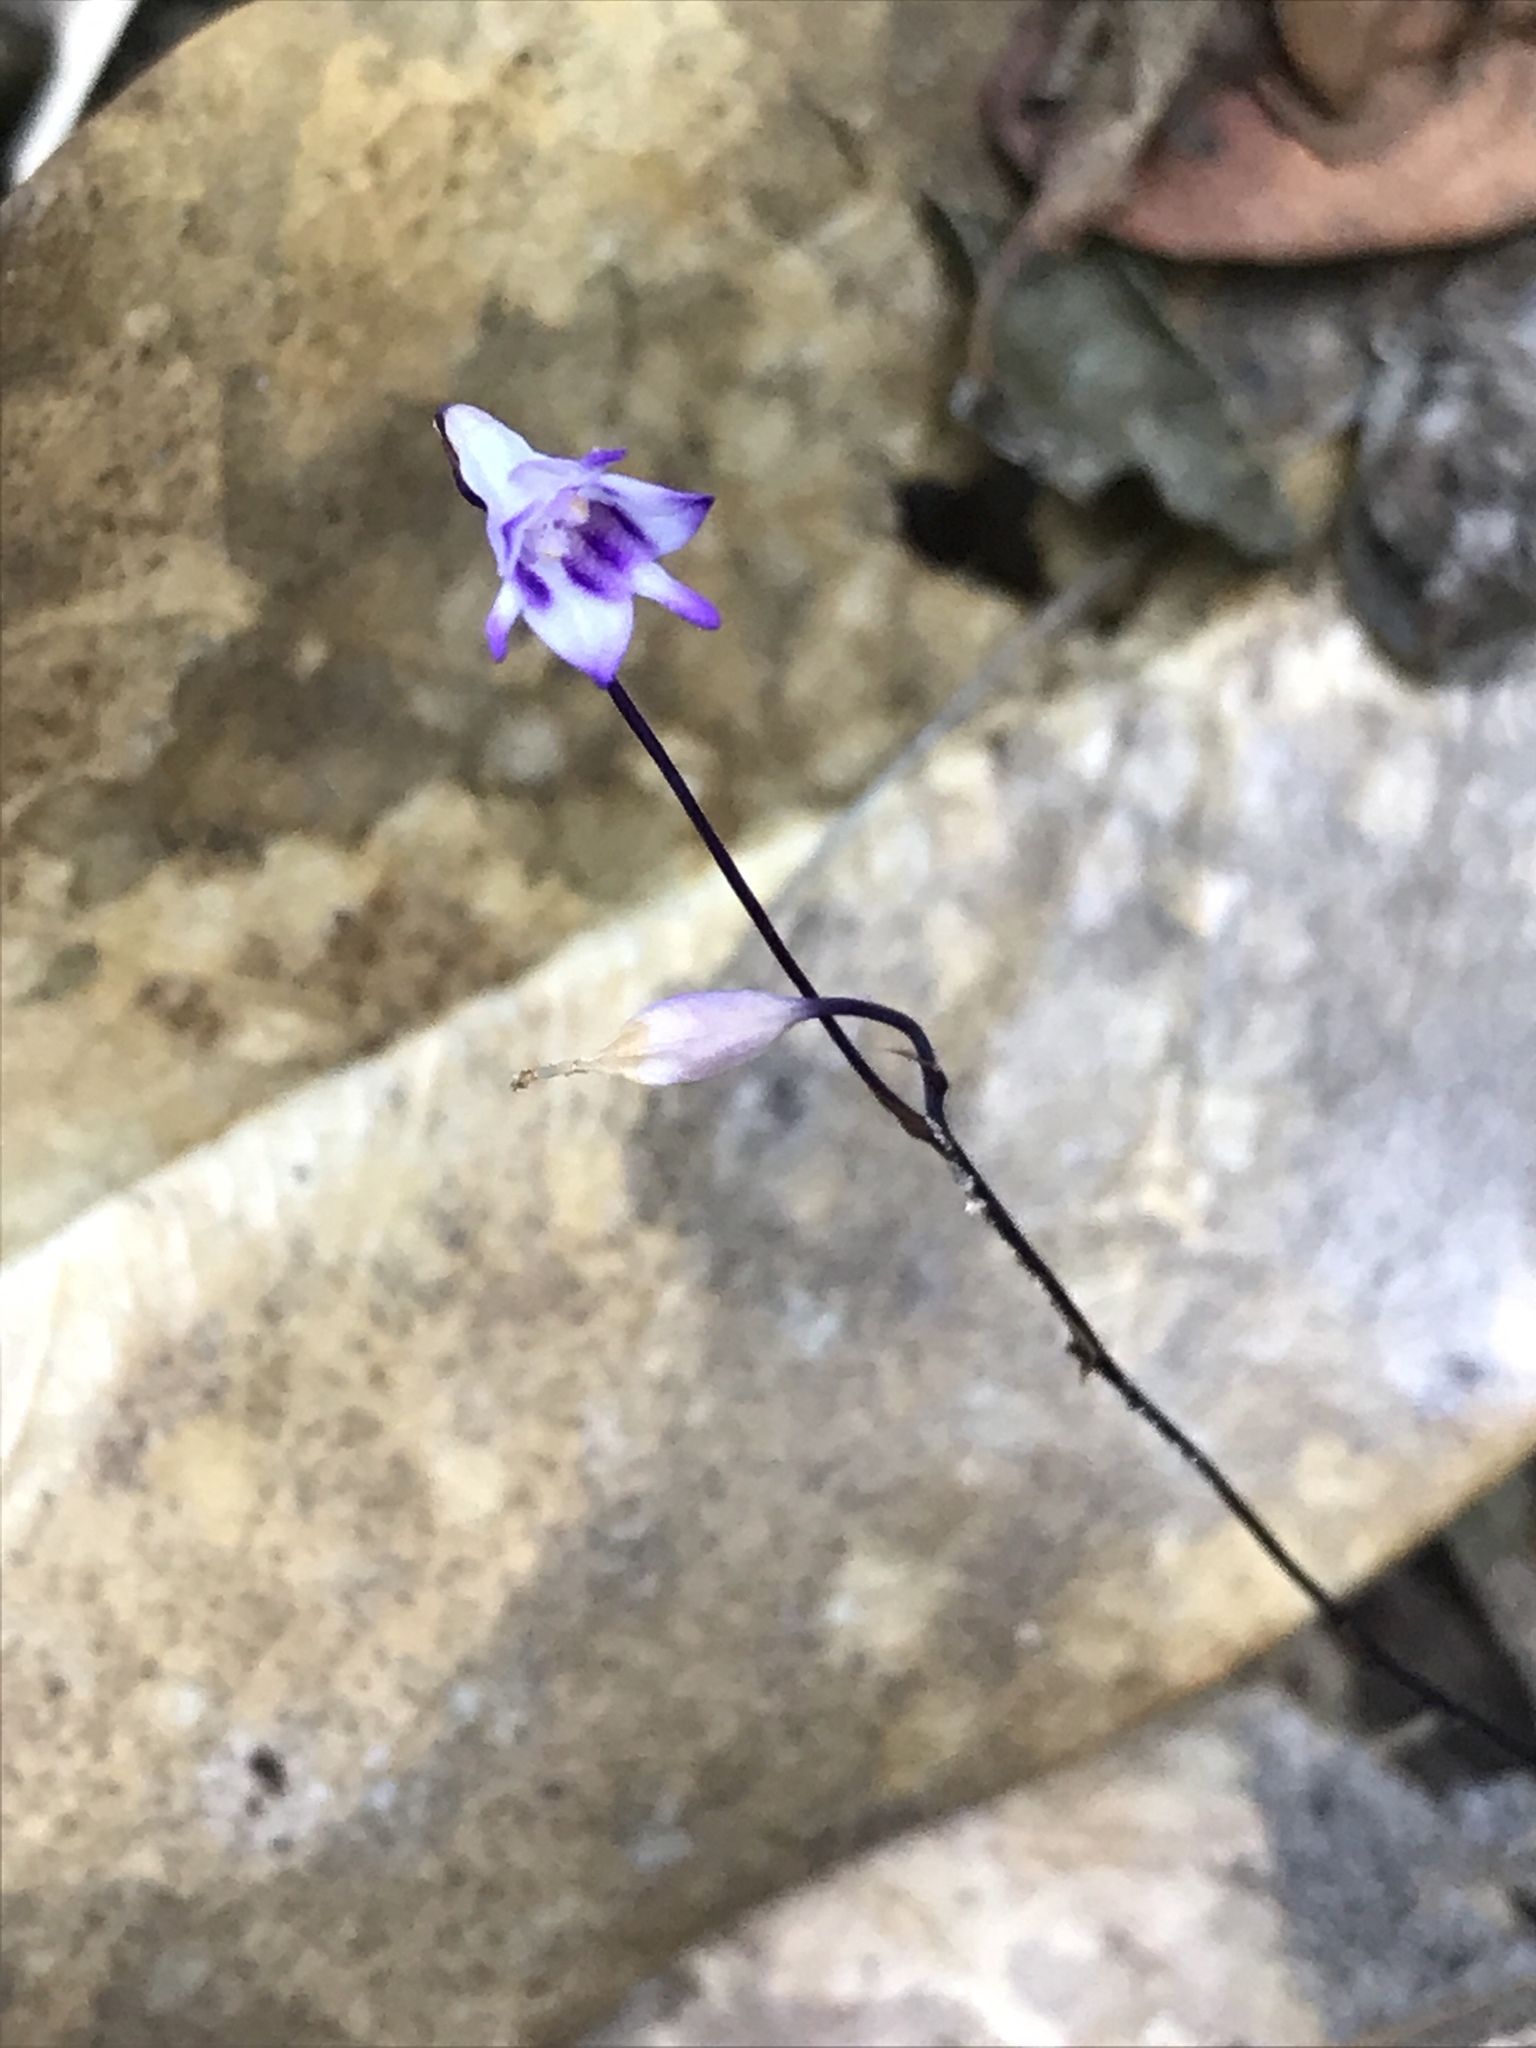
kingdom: Plantae
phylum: Tracheophyta
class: Liliopsida
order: Dioscoreales
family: Burmanniaceae
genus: Apteria
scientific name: Apteria aphylla
